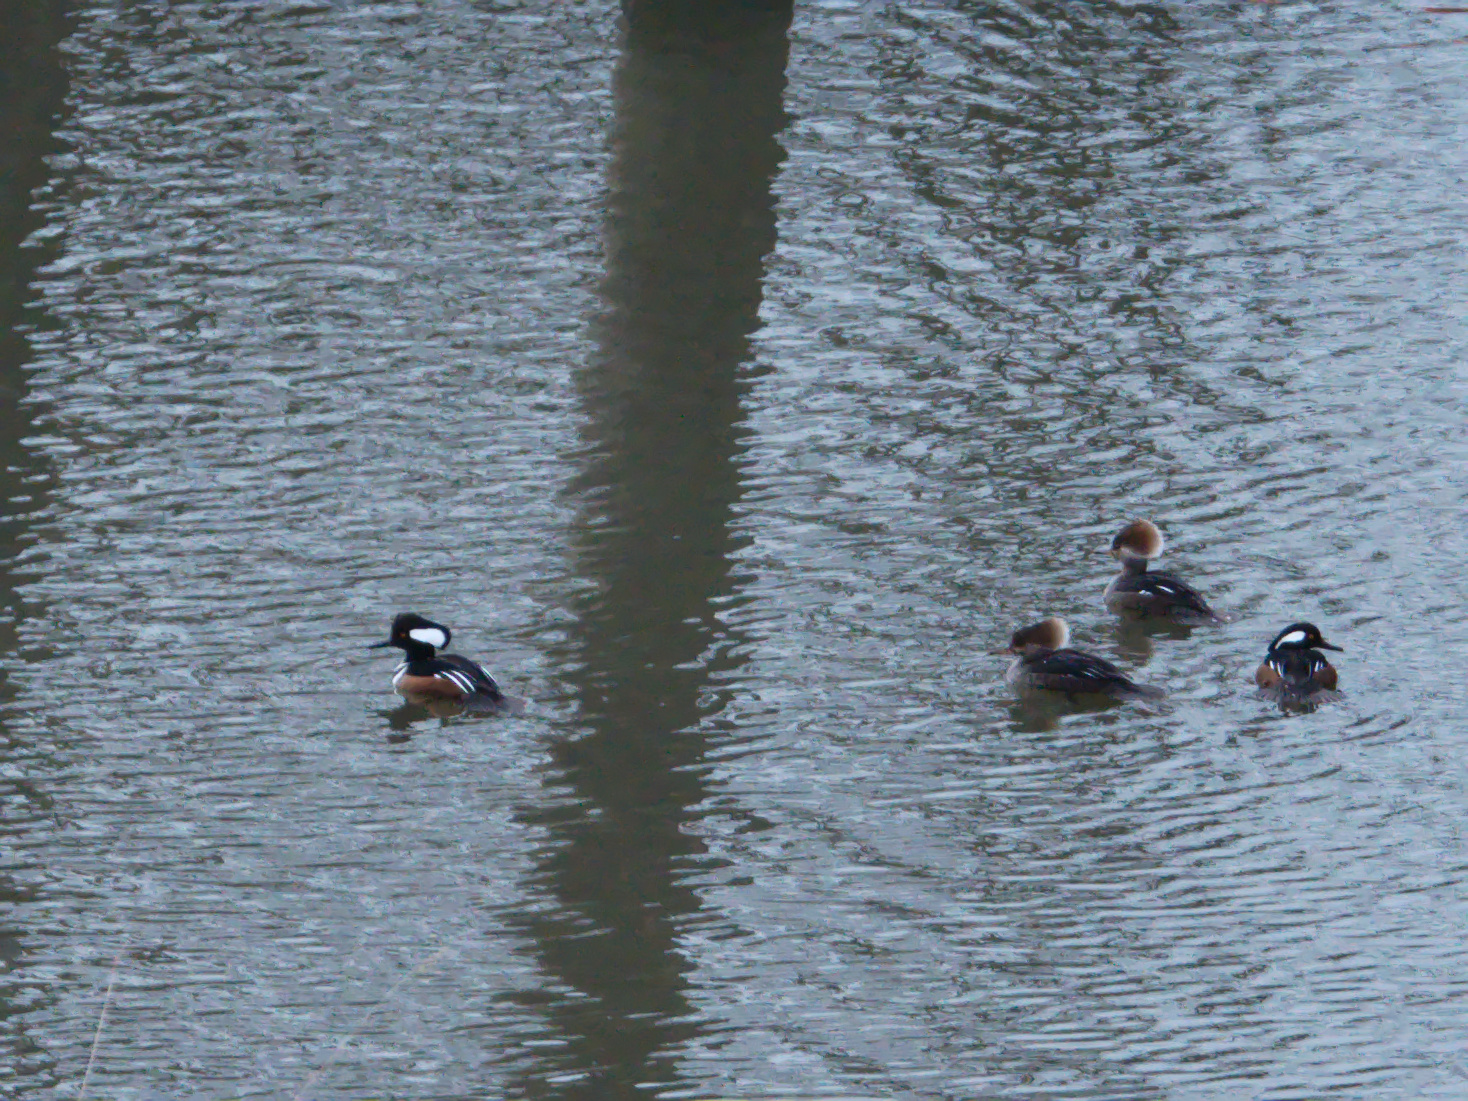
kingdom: Animalia
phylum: Chordata
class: Aves
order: Anseriformes
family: Anatidae
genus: Lophodytes
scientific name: Lophodytes cucullatus
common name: Hooded merganser
